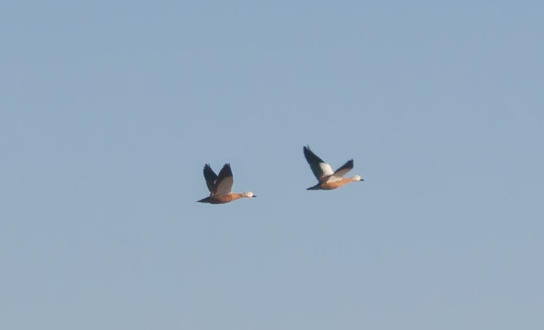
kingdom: Animalia
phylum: Chordata
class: Aves
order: Anseriformes
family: Anatidae
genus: Tadorna
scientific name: Tadorna ferruginea
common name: Ruddy shelduck
